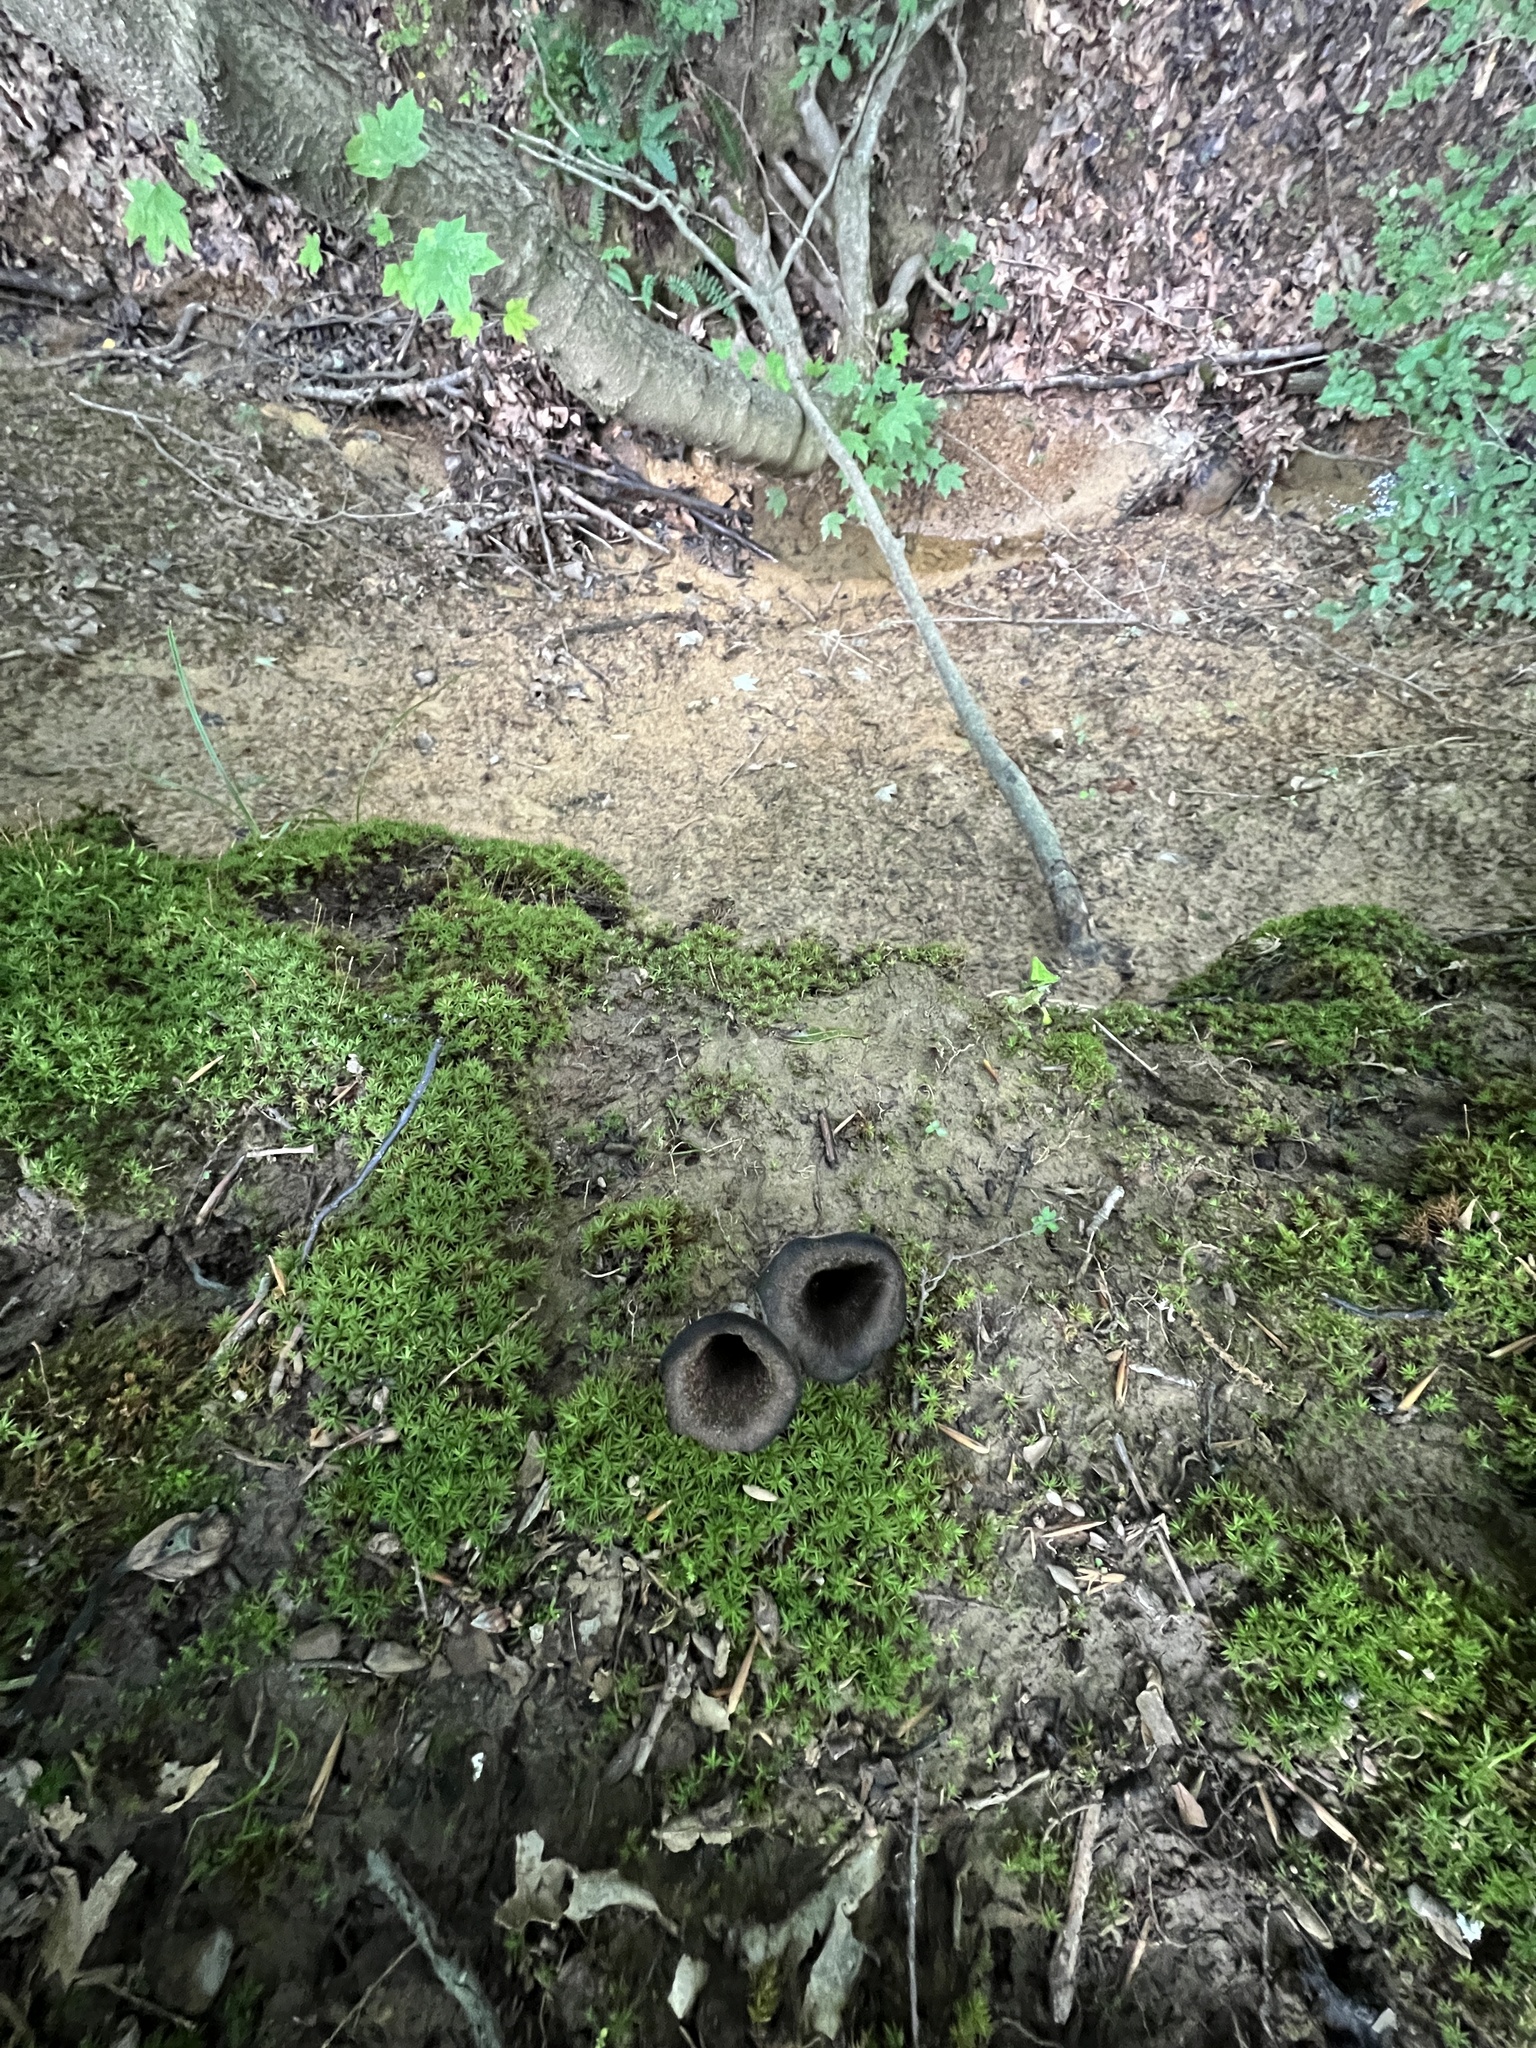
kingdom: Fungi
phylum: Basidiomycota
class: Agaricomycetes
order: Cantharellales
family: Hydnaceae
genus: Craterellus
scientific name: Craterellus cornucopioides
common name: Horn of plenty
